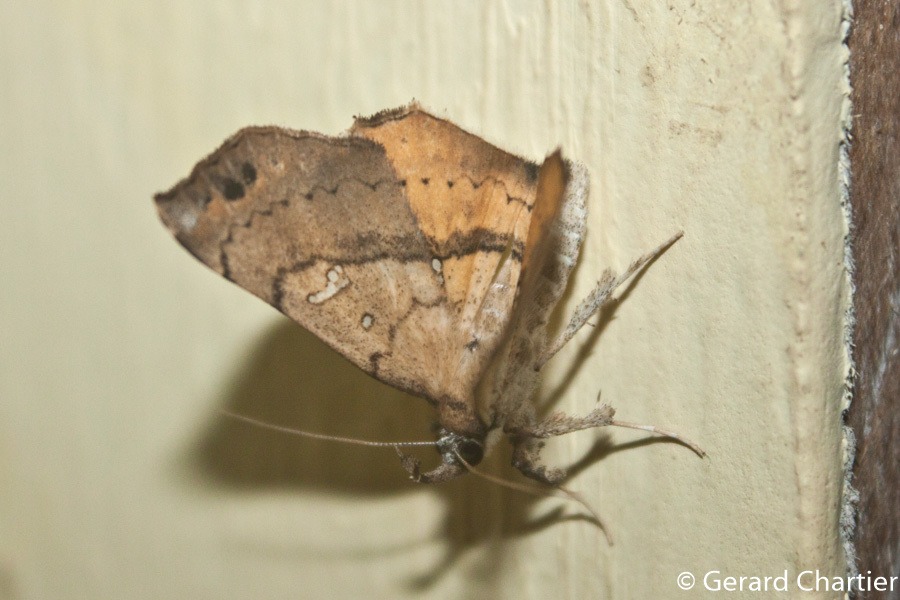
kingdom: Animalia
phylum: Arthropoda
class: Insecta
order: Lepidoptera
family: Erebidae
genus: Egnasia
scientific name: Egnasia trogosema
